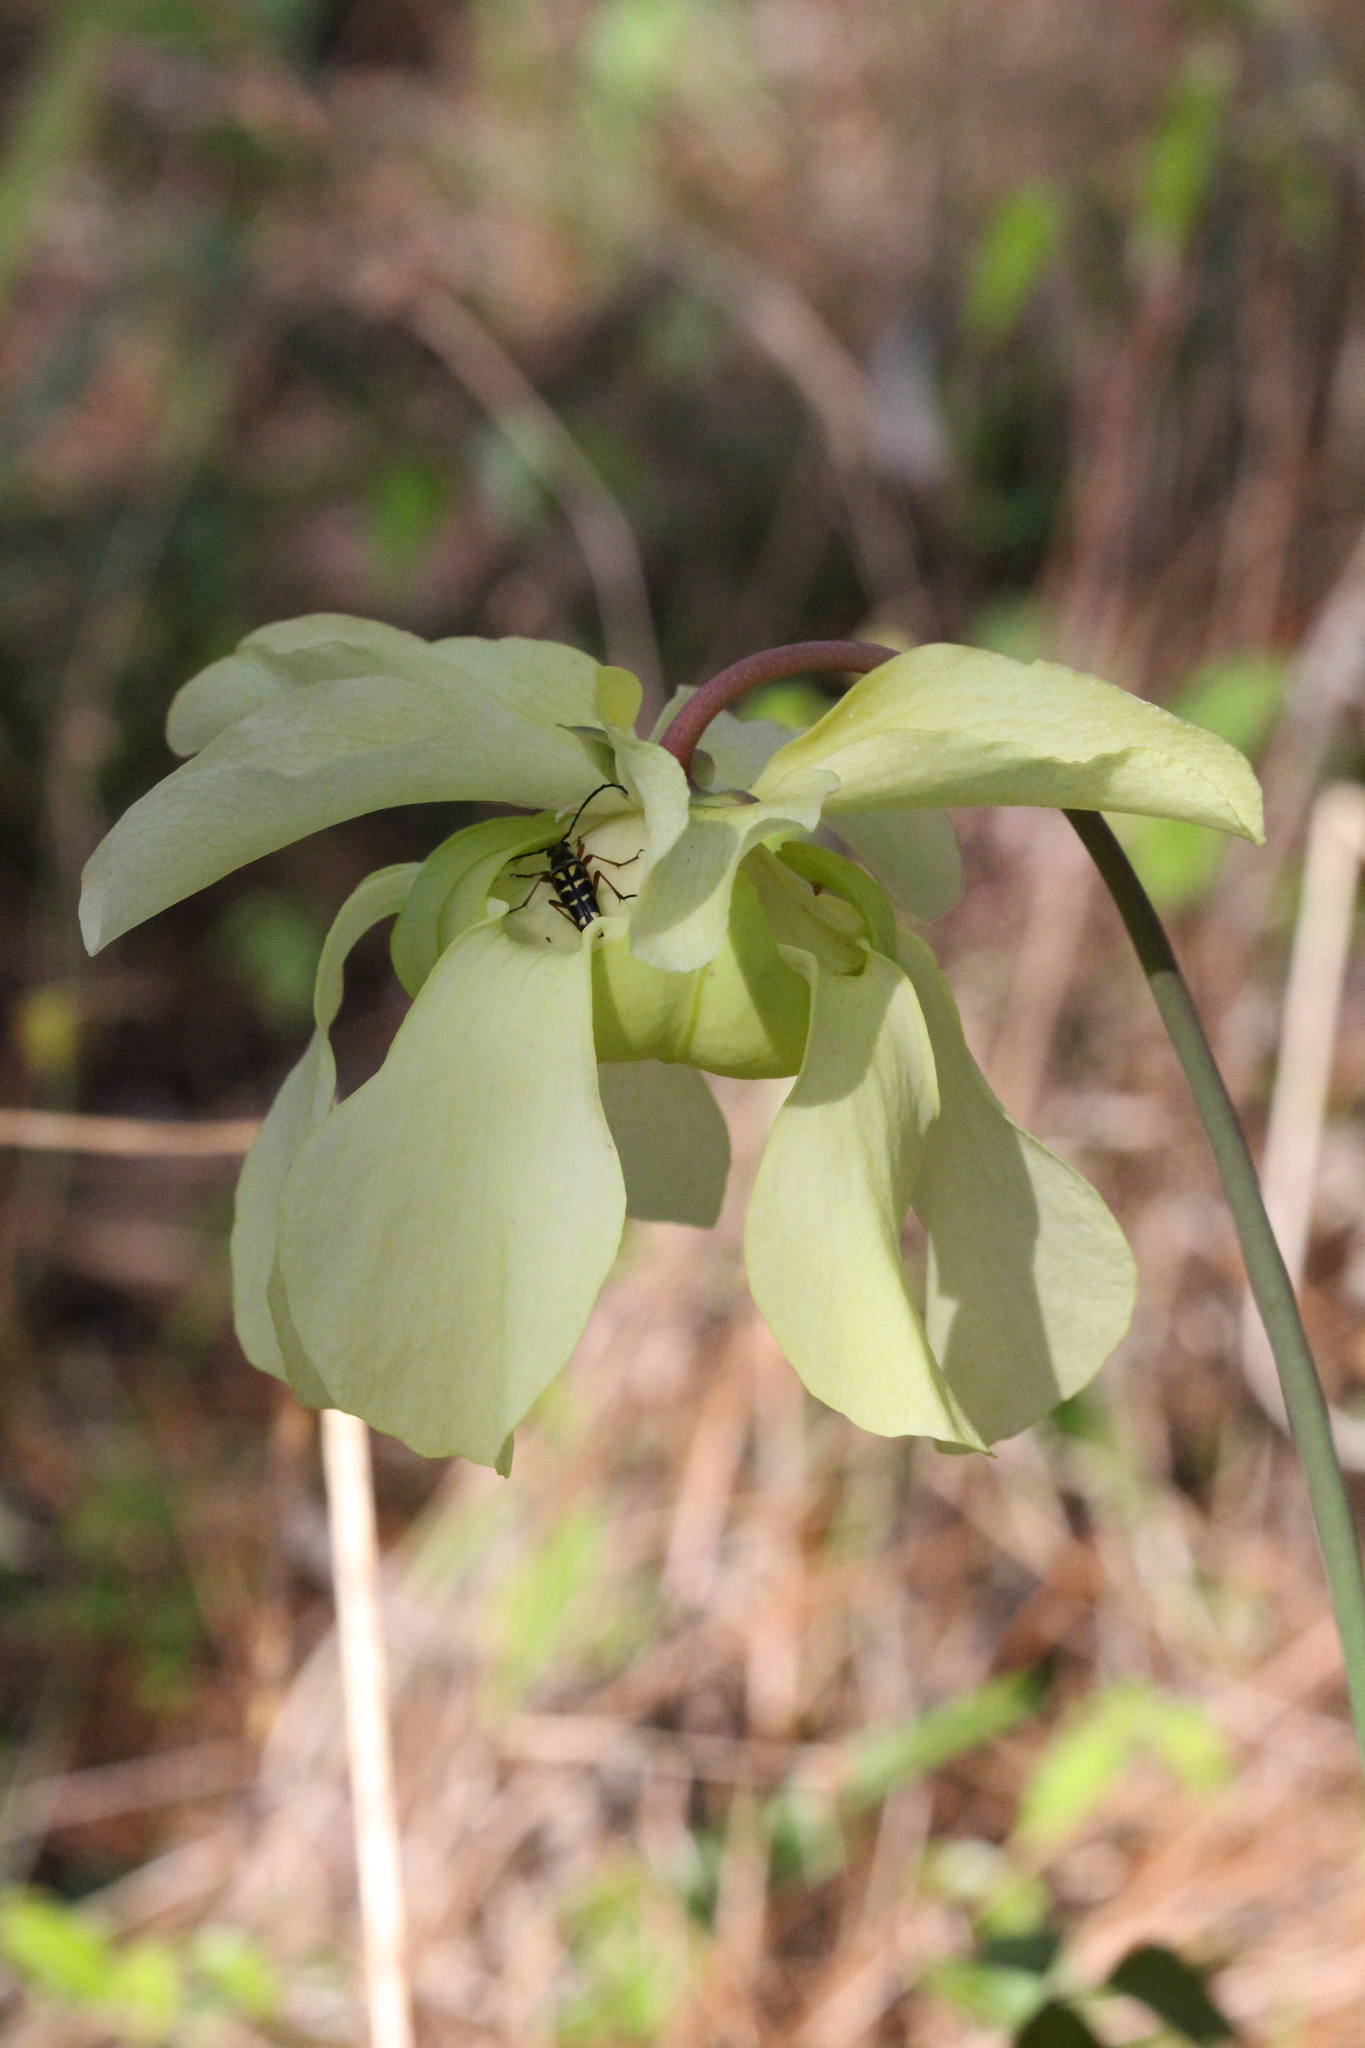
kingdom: Plantae
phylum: Tracheophyta
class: Magnoliopsida
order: Ericales
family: Sarraceniaceae
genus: Sarracenia
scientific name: Sarracenia alata
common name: Yellow trumpets
